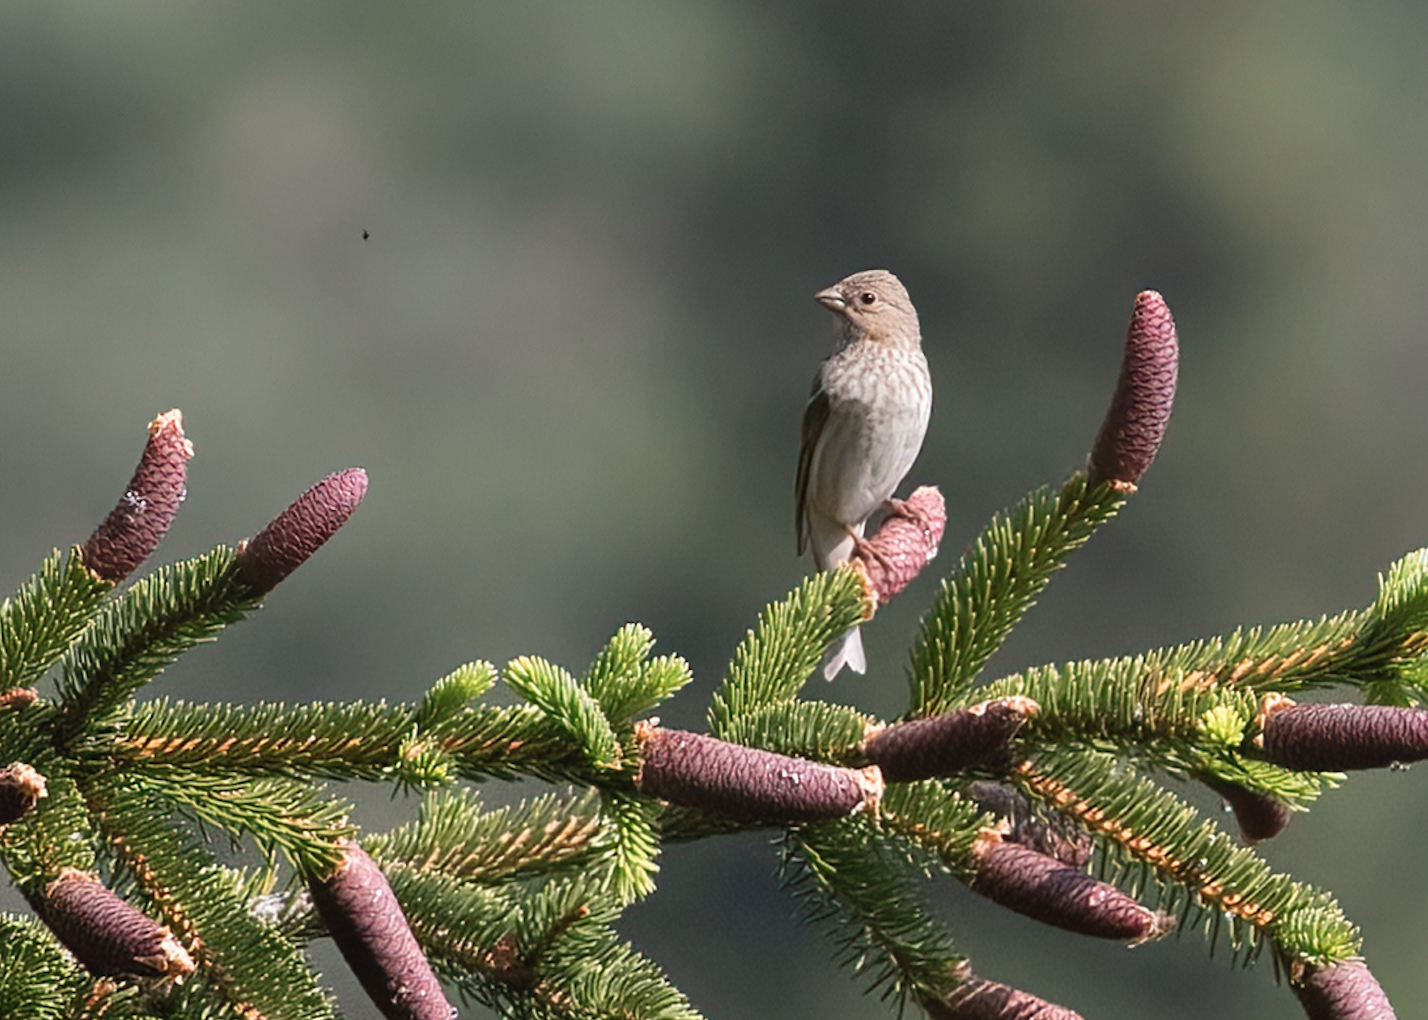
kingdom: Animalia
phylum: Chordata
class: Aves
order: Passeriformes
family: Fringillidae
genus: Carpodacus
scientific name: Carpodacus erythrinus
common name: Common rosefinch
